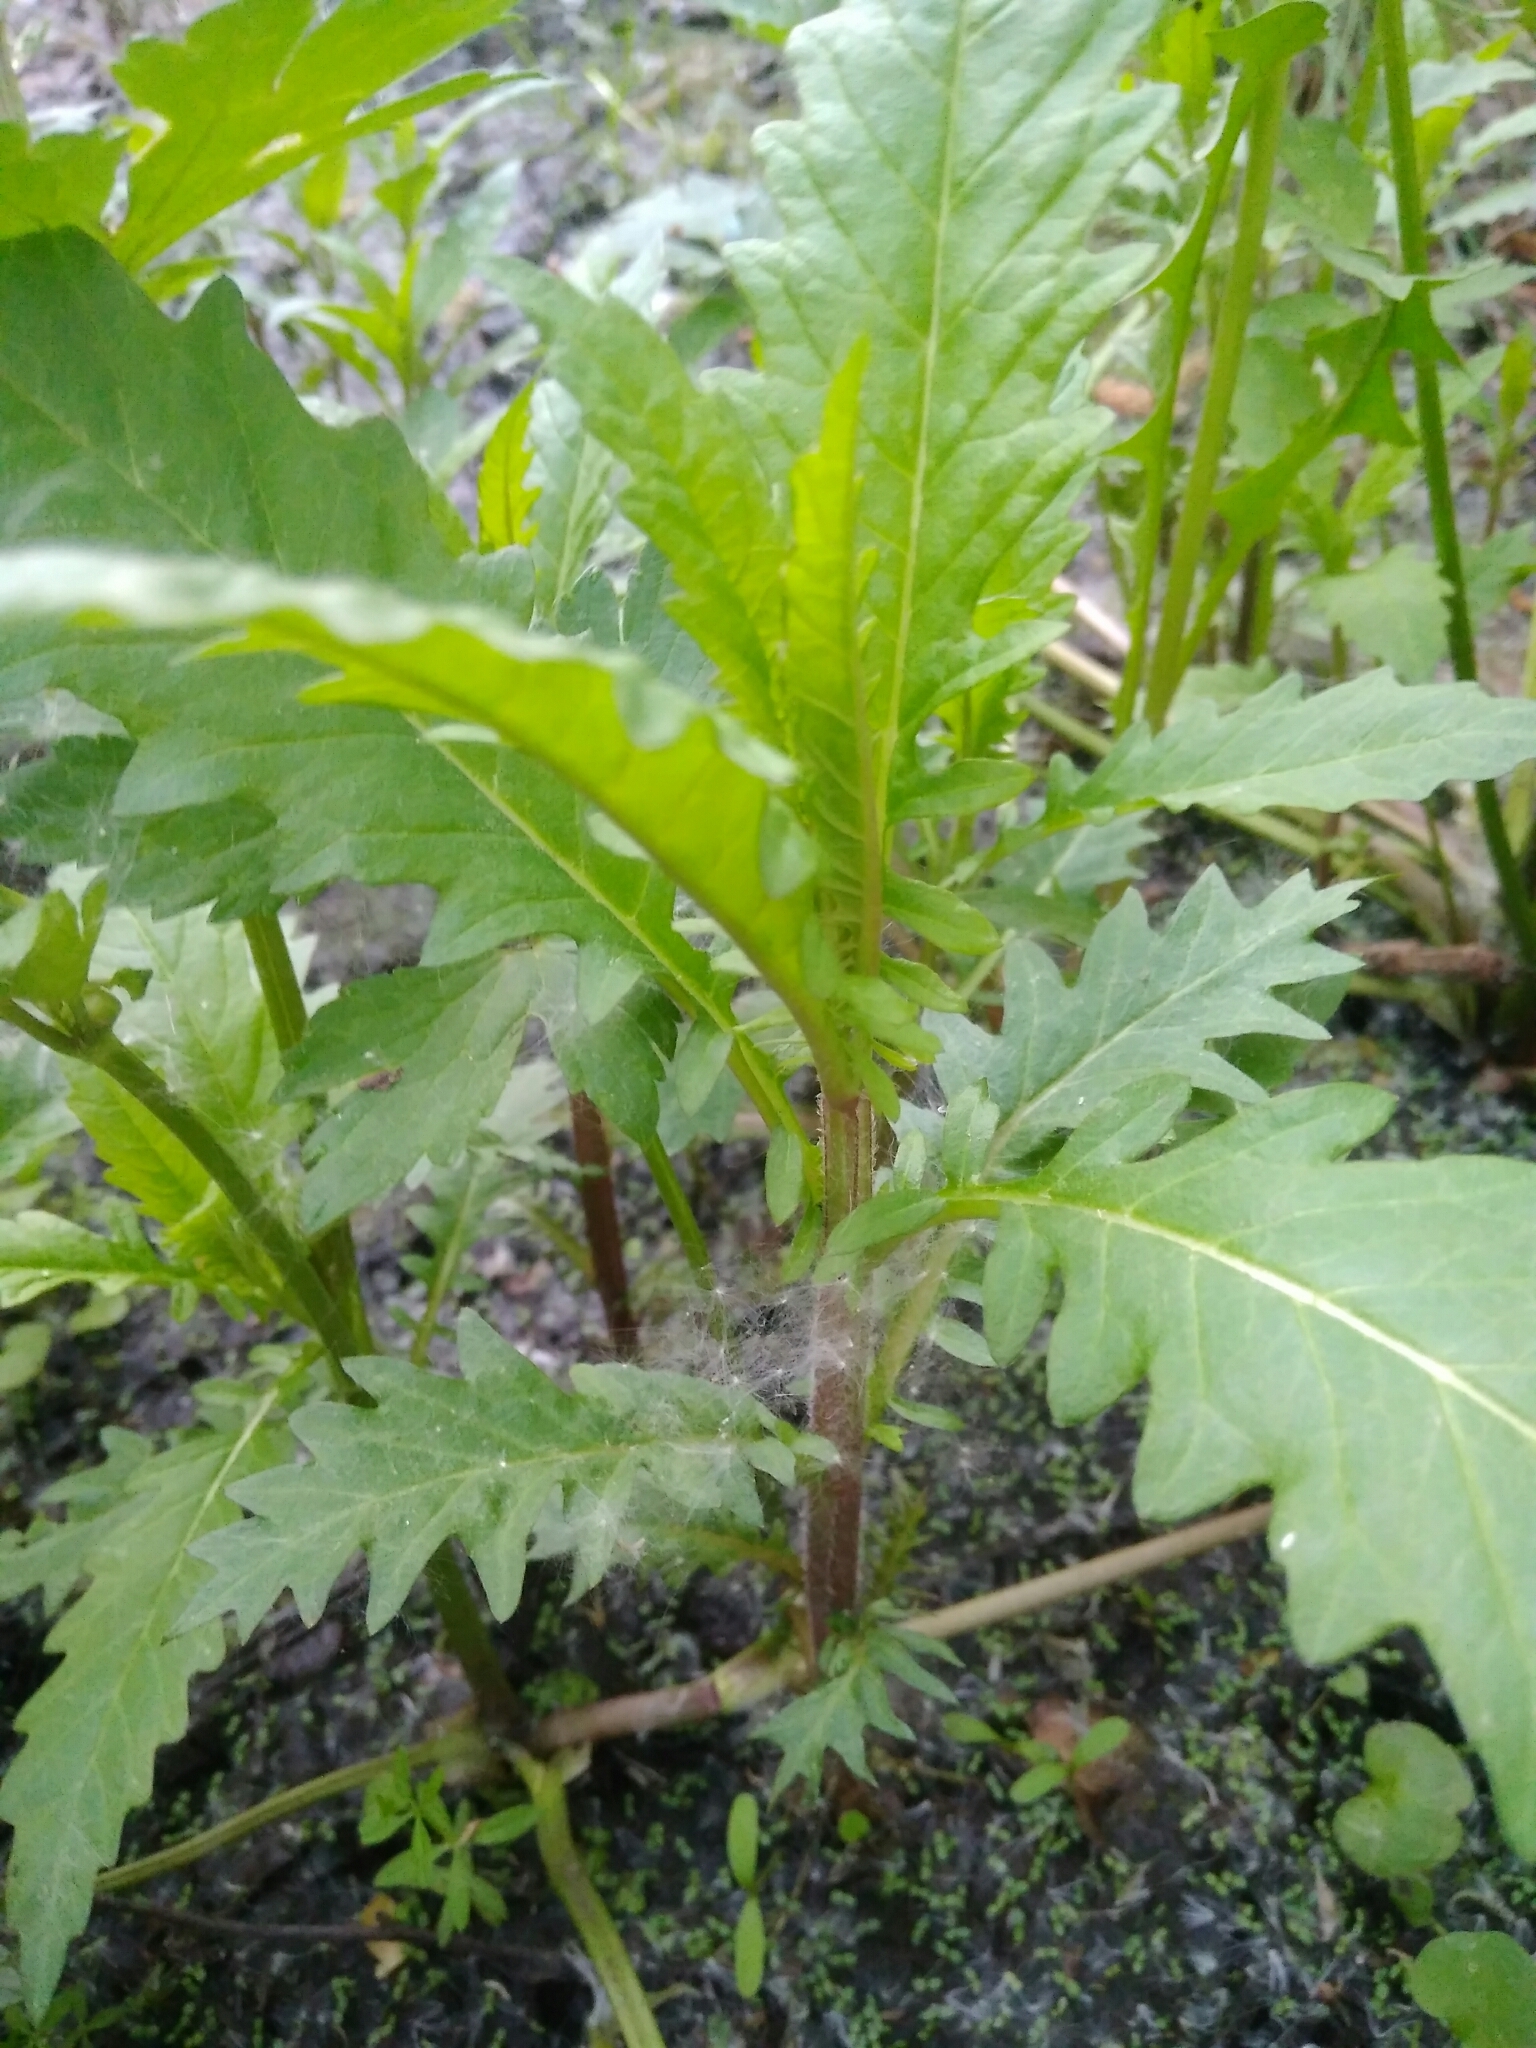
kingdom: Plantae
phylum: Tracheophyta
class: Magnoliopsida
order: Lamiales
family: Lamiaceae
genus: Lycopus
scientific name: Lycopus europaeus
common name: European bugleweed
